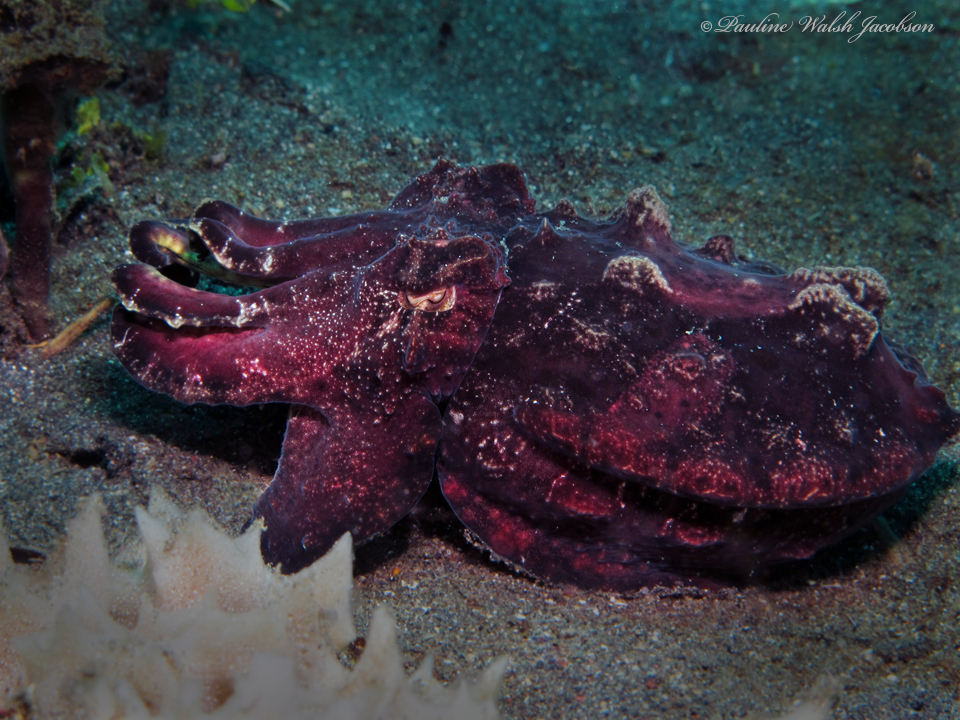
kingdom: Animalia
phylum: Mollusca
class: Cephalopoda
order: Sepiida
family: Sepiidae
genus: Ascarosepion
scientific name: Ascarosepion pfefferi
